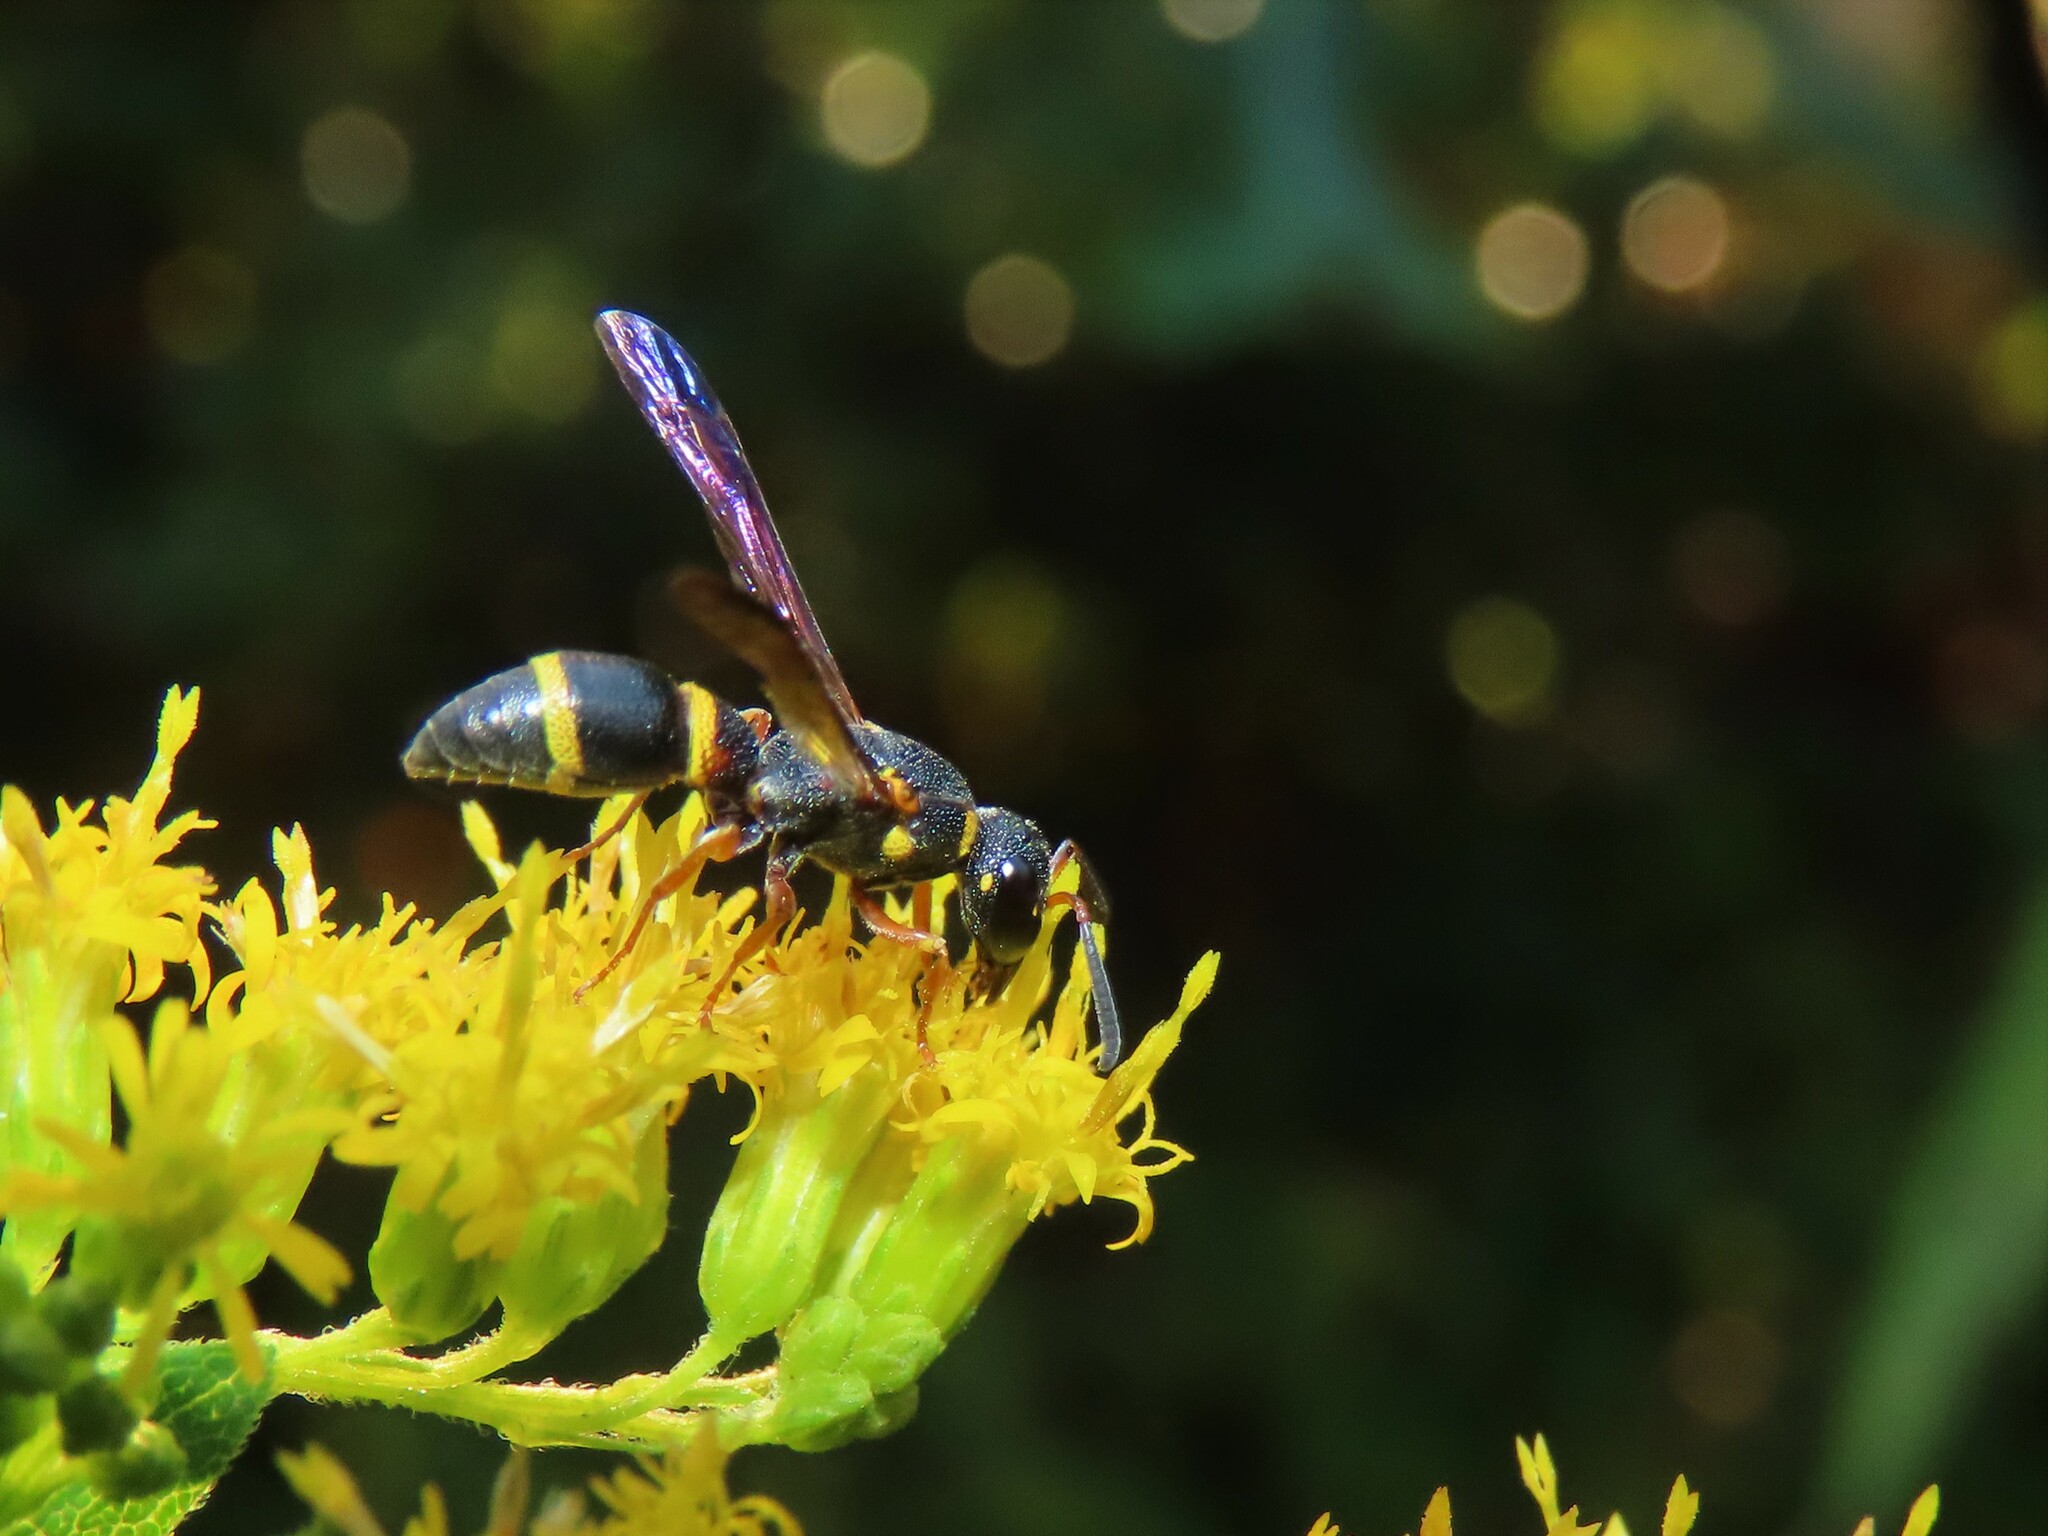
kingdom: Animalia
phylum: Arthropoda
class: Insecta
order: Hymenoptera
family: Eumenidae
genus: Parancistrocerus
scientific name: Parancistrocerus perennis
